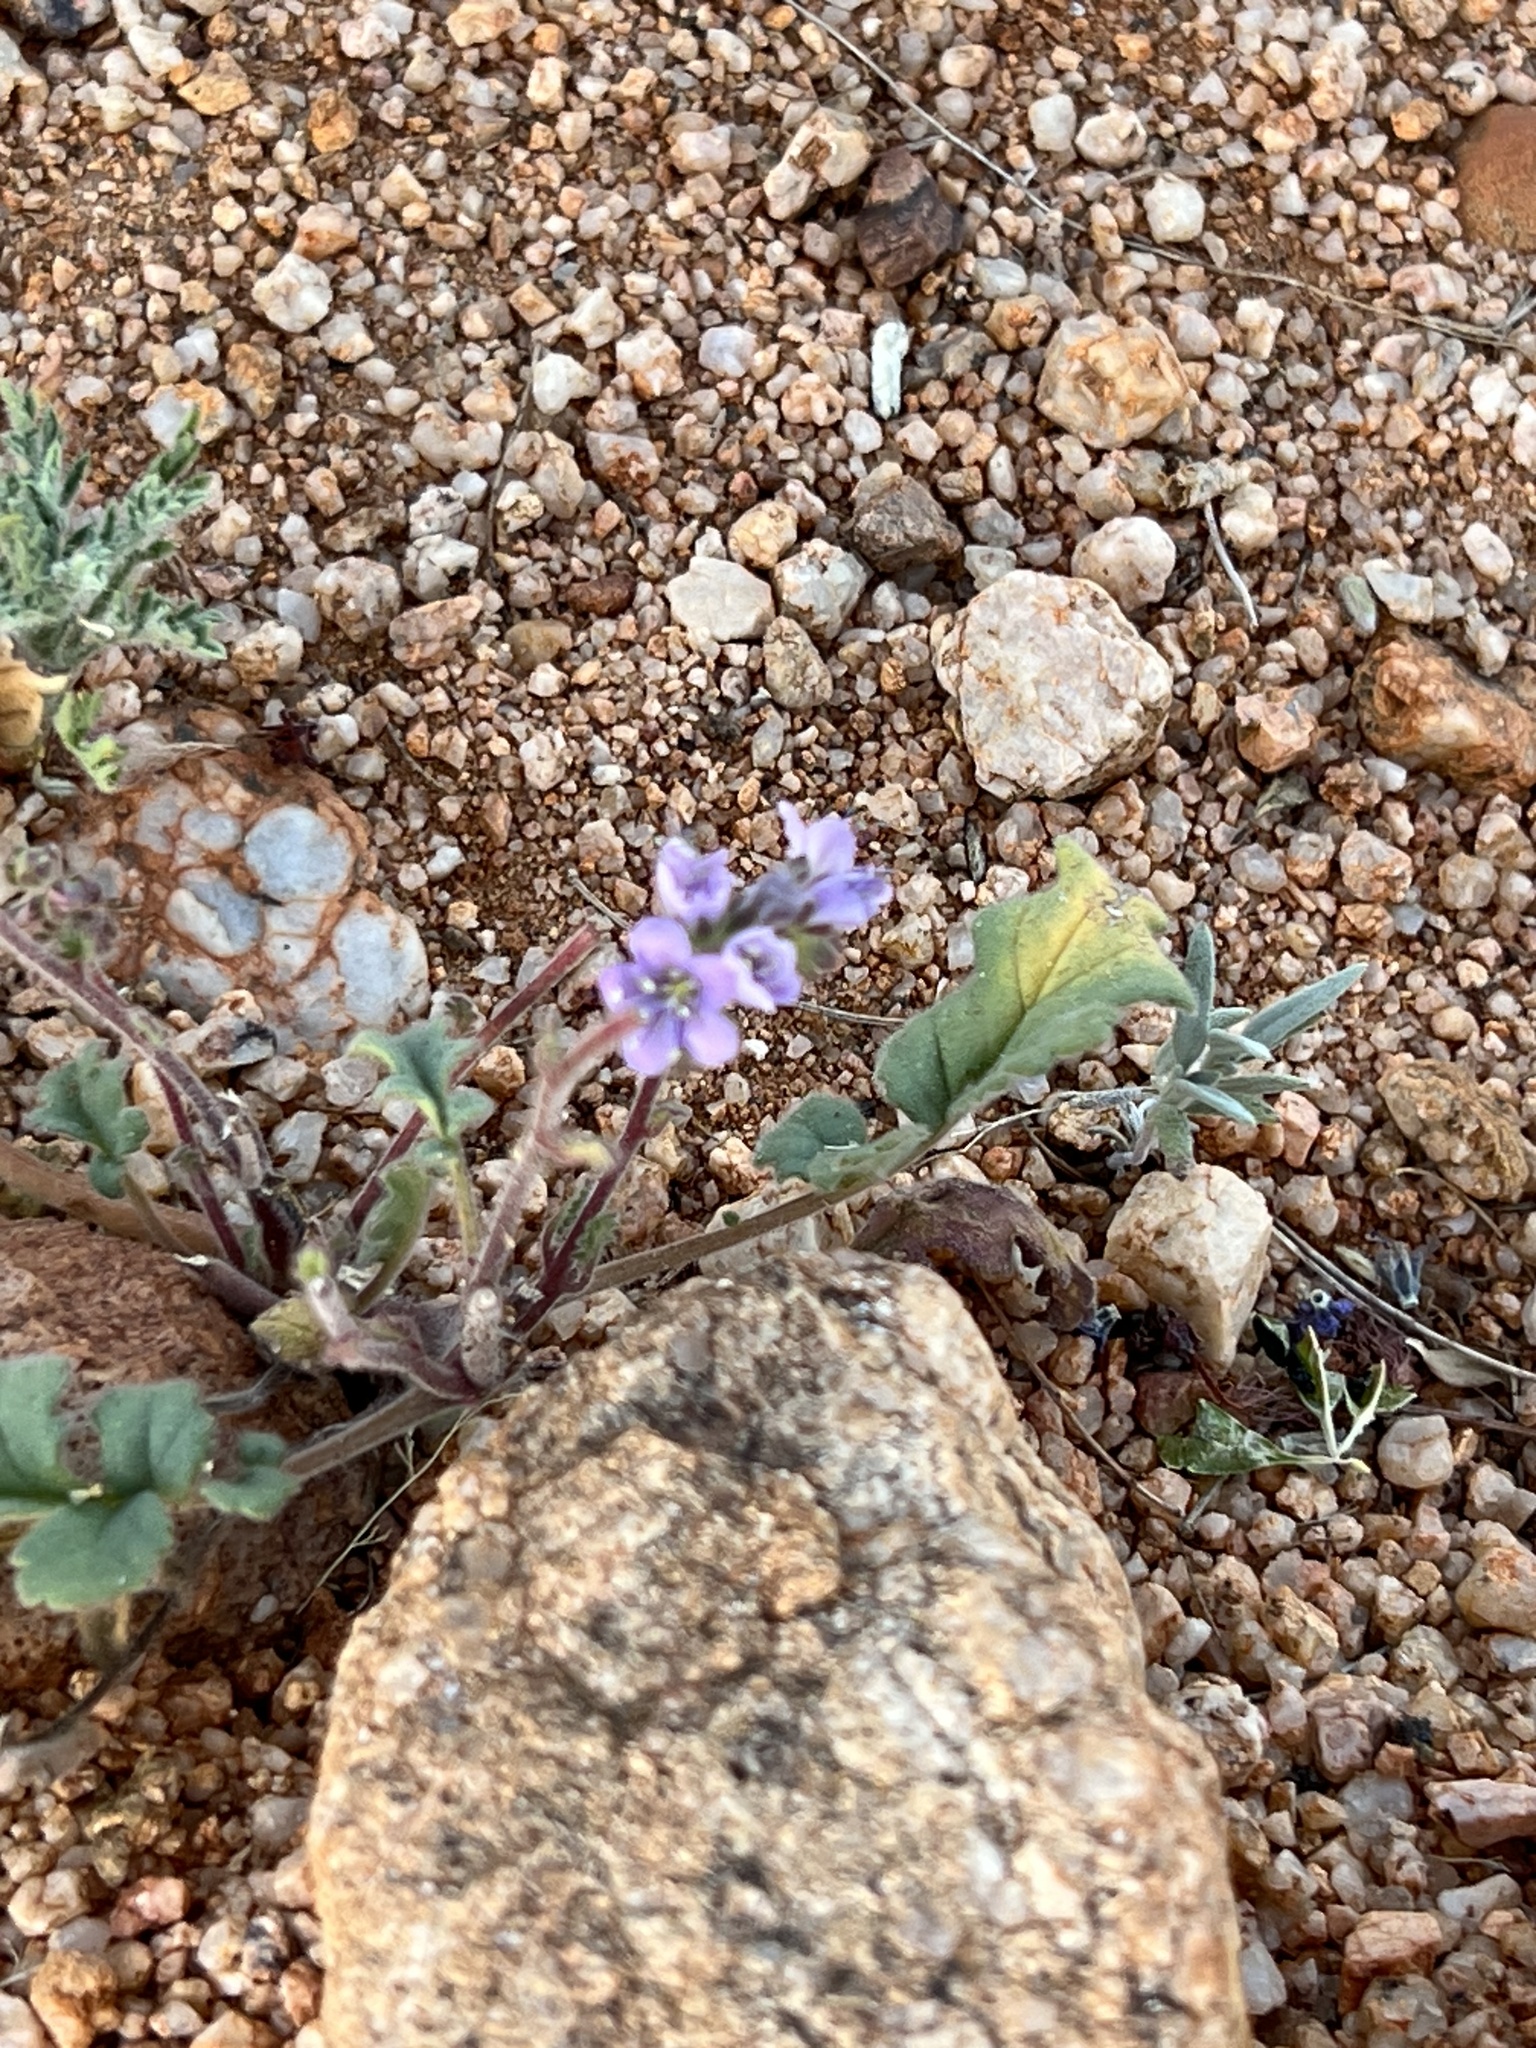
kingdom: Plantae
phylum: Tracheophyta
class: Magnoliopsida
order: Boraginales
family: Hydrophyllaceae
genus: Phacelia
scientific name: Phacelia crenulata
